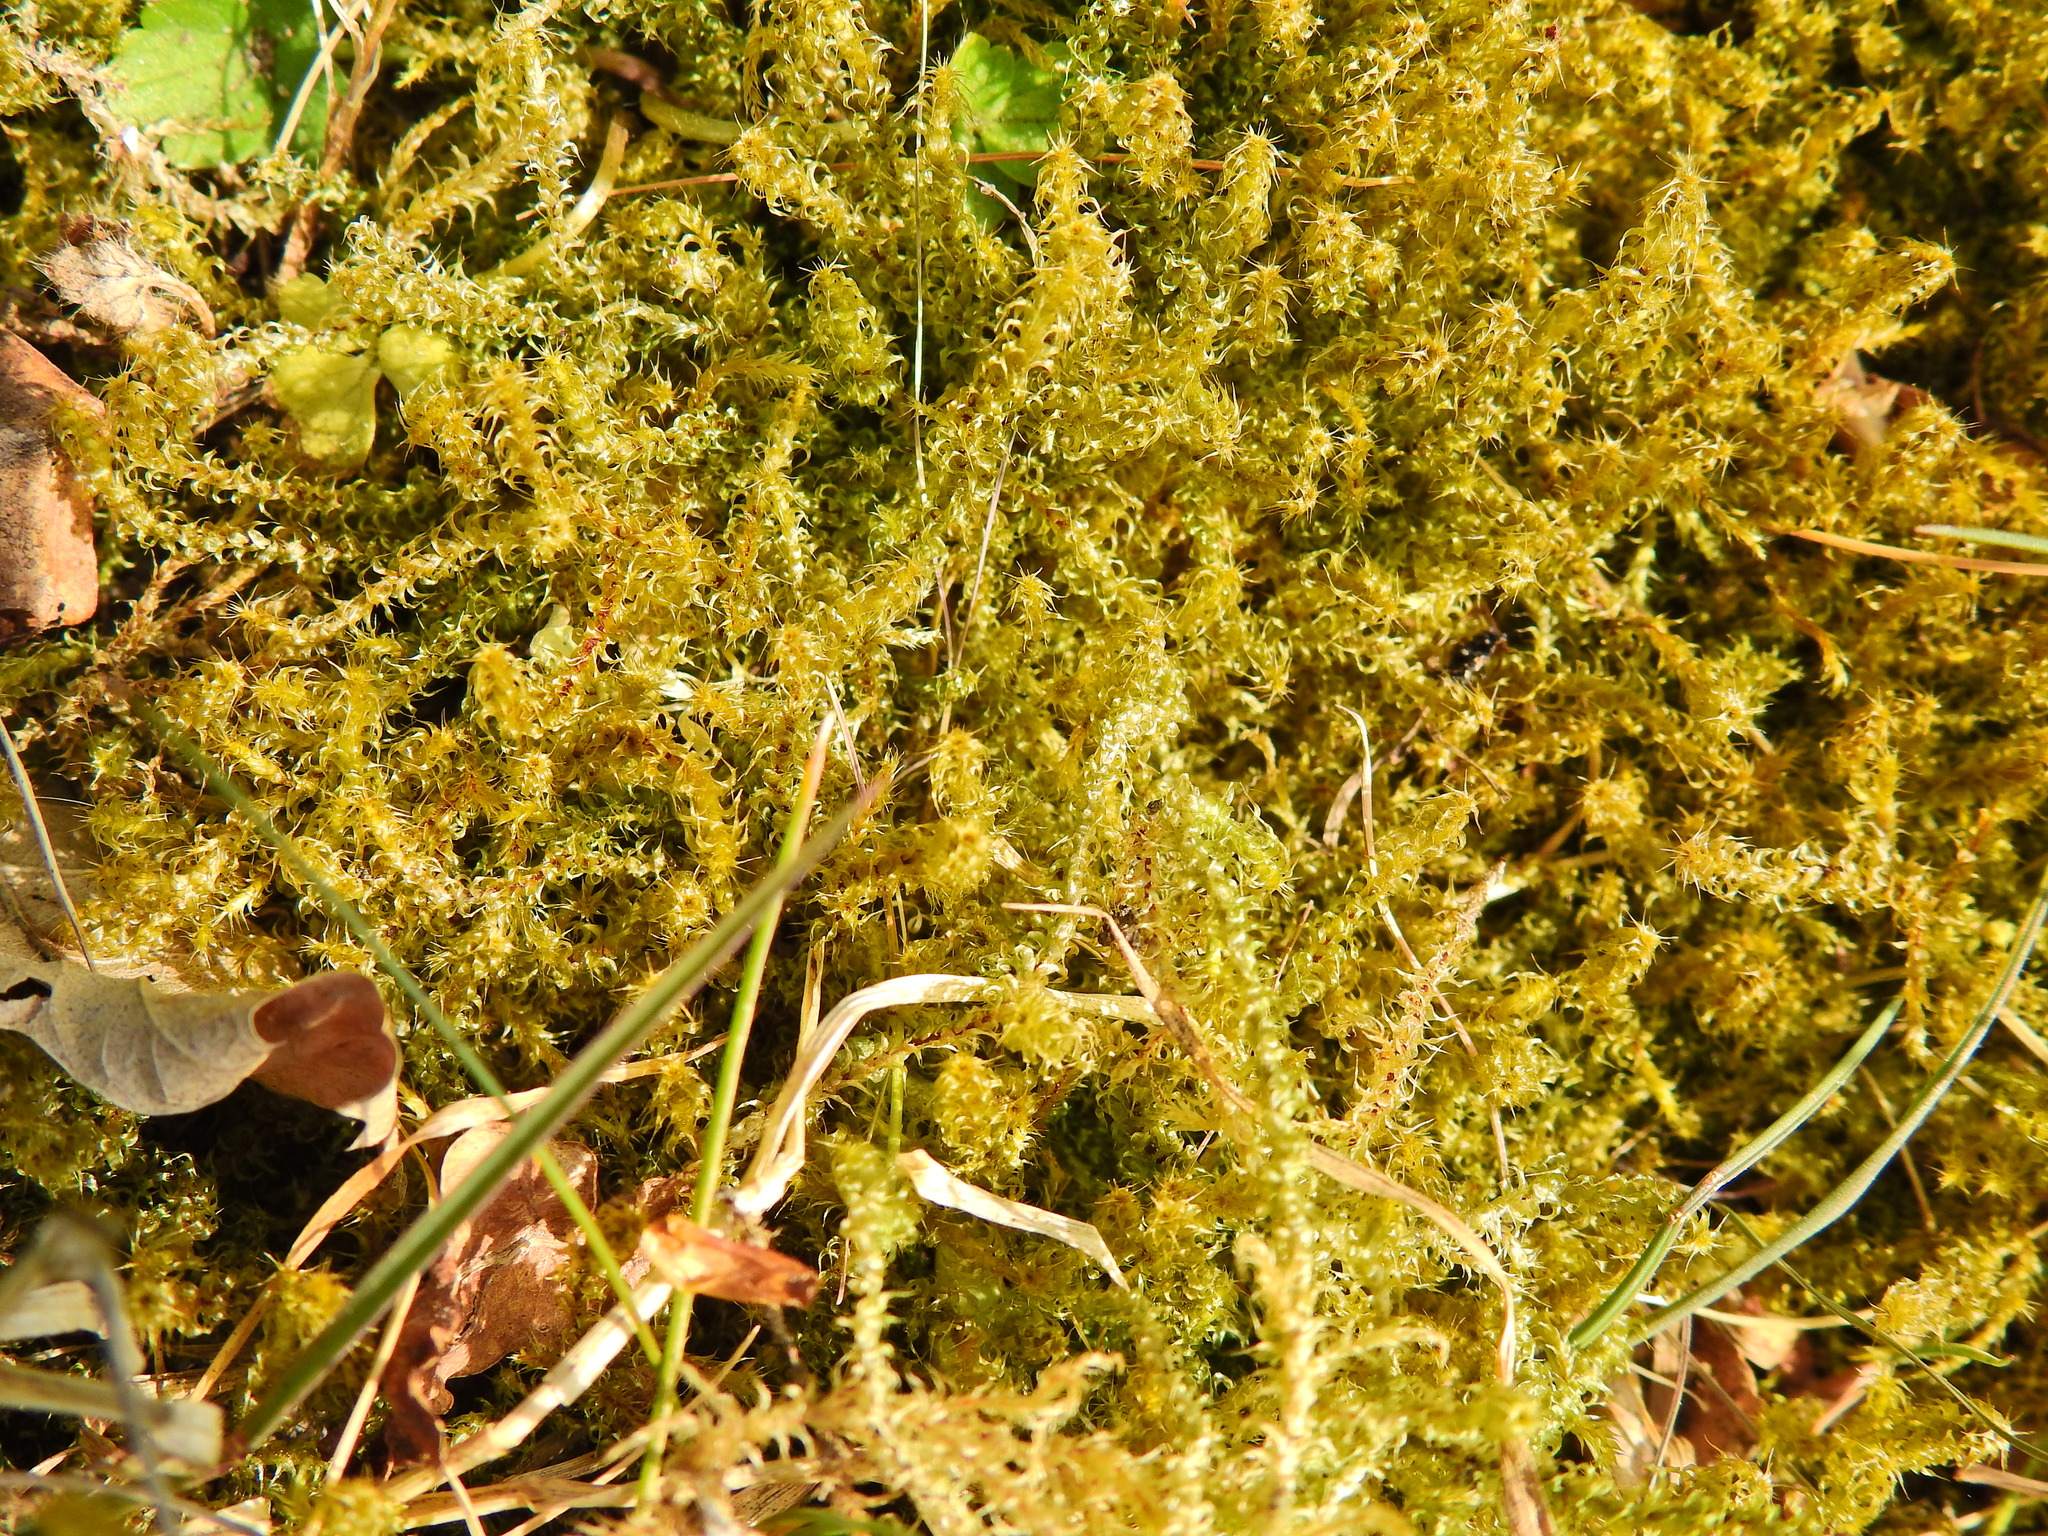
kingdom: Plantae
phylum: Bryophyta
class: Bryopsida
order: Hypnales
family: Hylocomiaceae
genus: Rhytidiadelphus
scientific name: Rhytidiadelphus squarrosus
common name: Springy turf-moss
